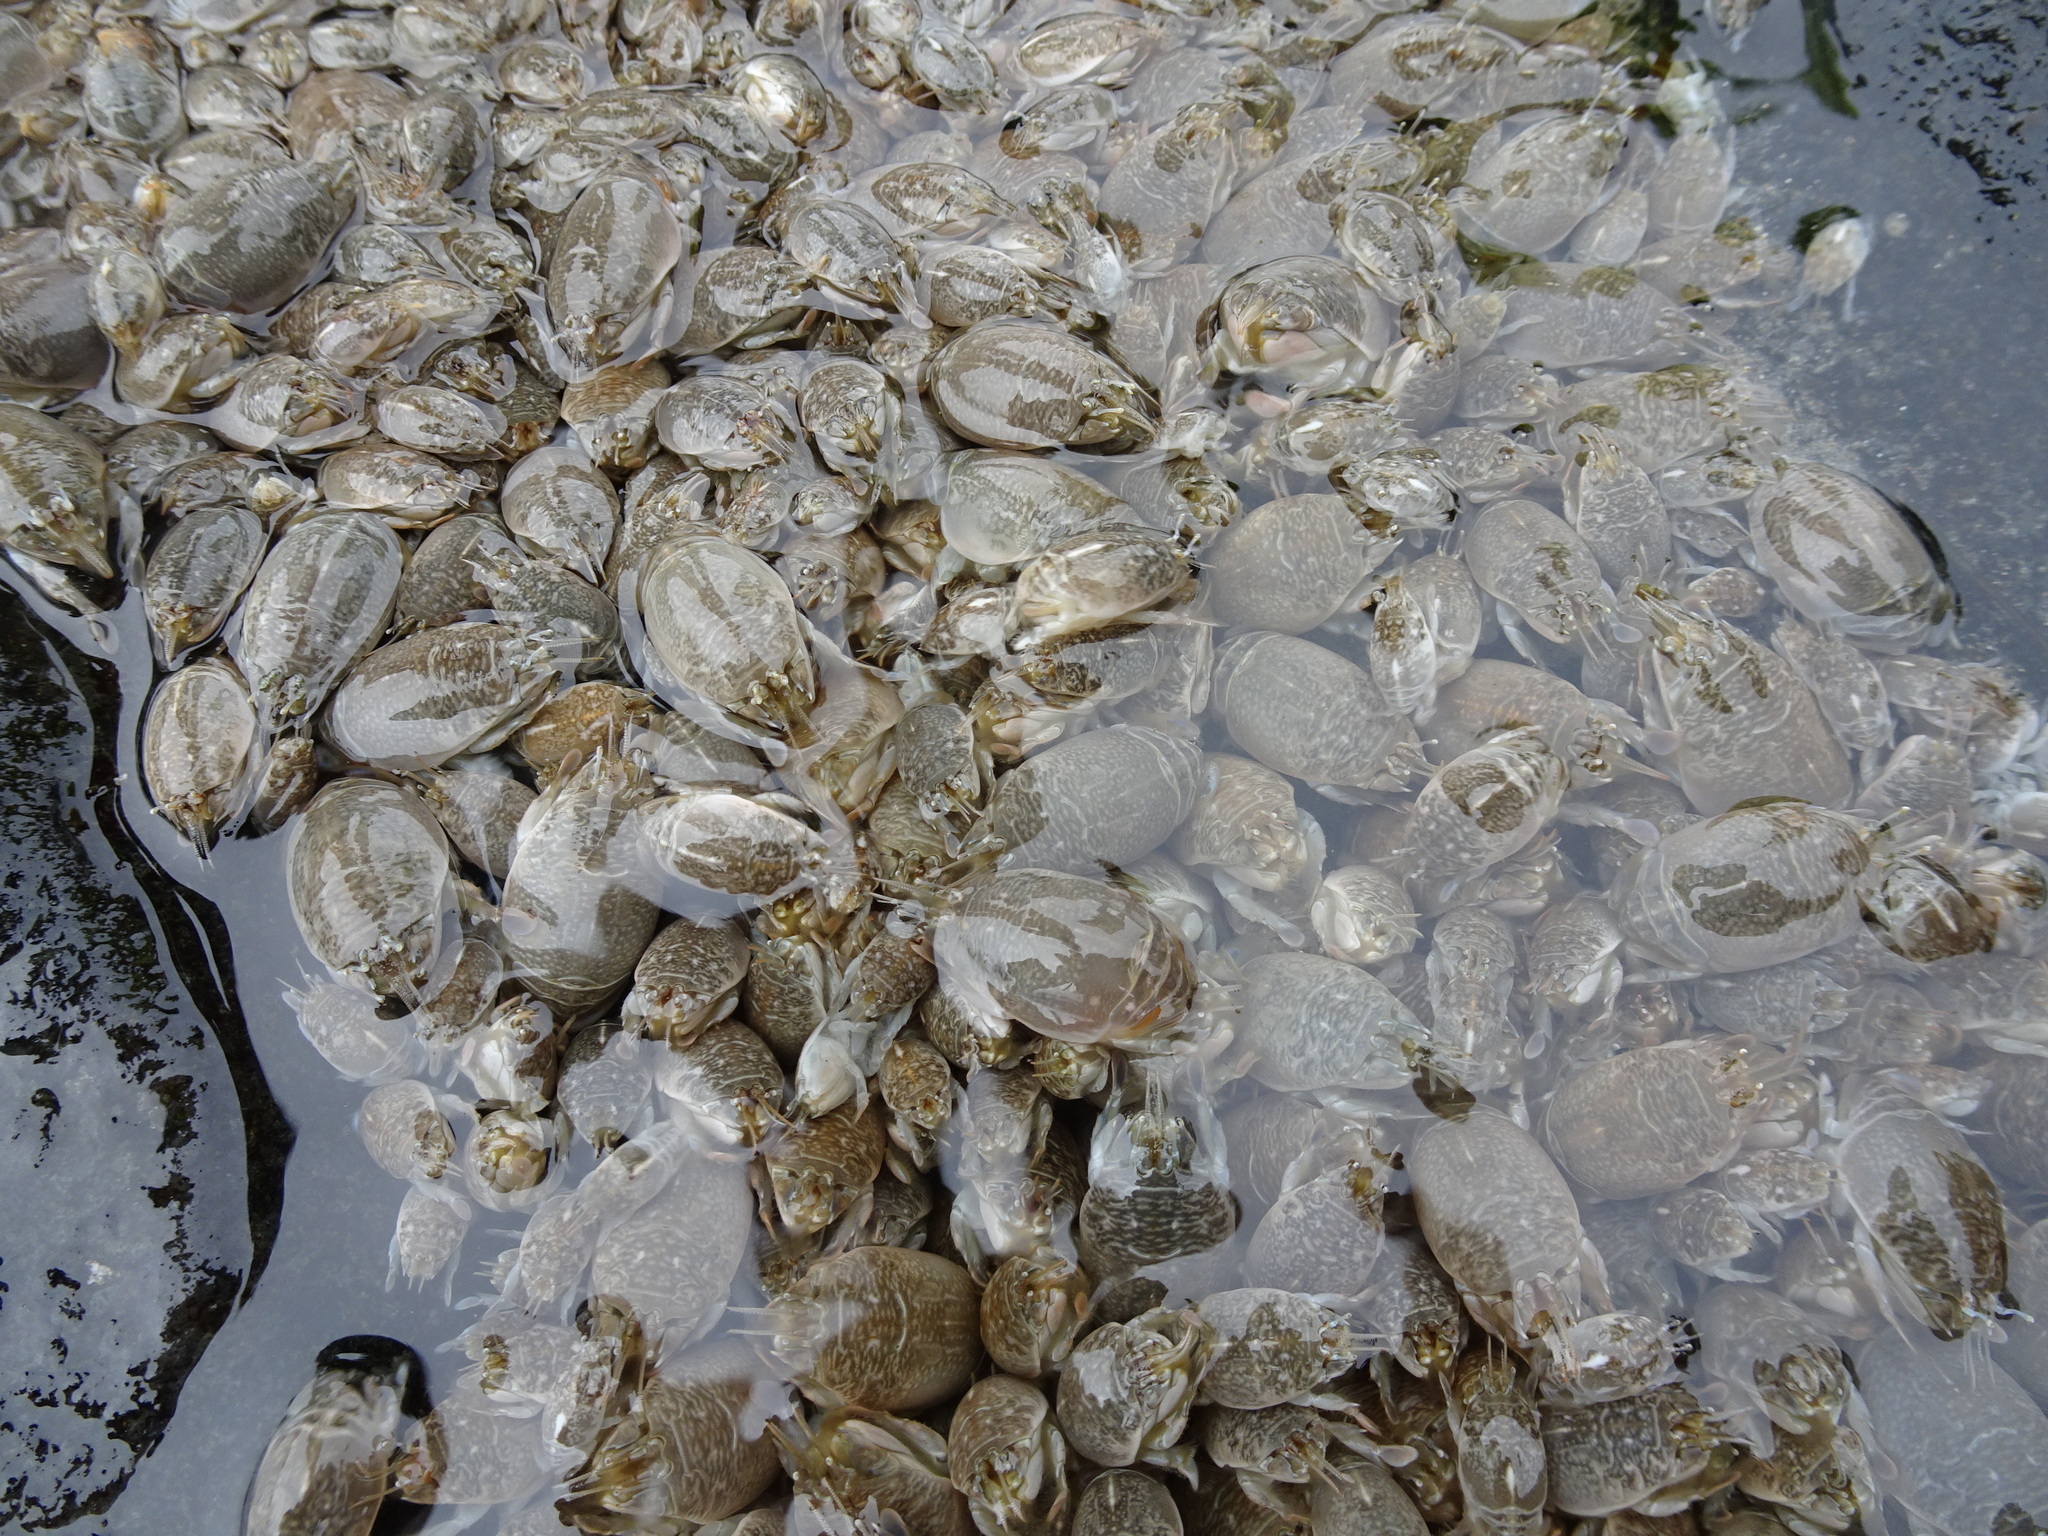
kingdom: Animalia
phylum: Arthropoda
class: Malacostraca
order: Decapoda
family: Hippidae
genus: Emerita
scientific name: Emerita analoga
